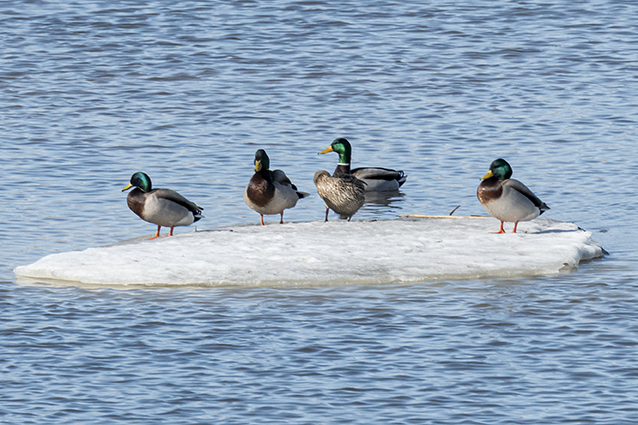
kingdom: Animalia
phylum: Chordata
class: Aves
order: Anseriformes
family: Anatidae
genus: Anas
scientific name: Anas platyrhynchos
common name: Mallard
